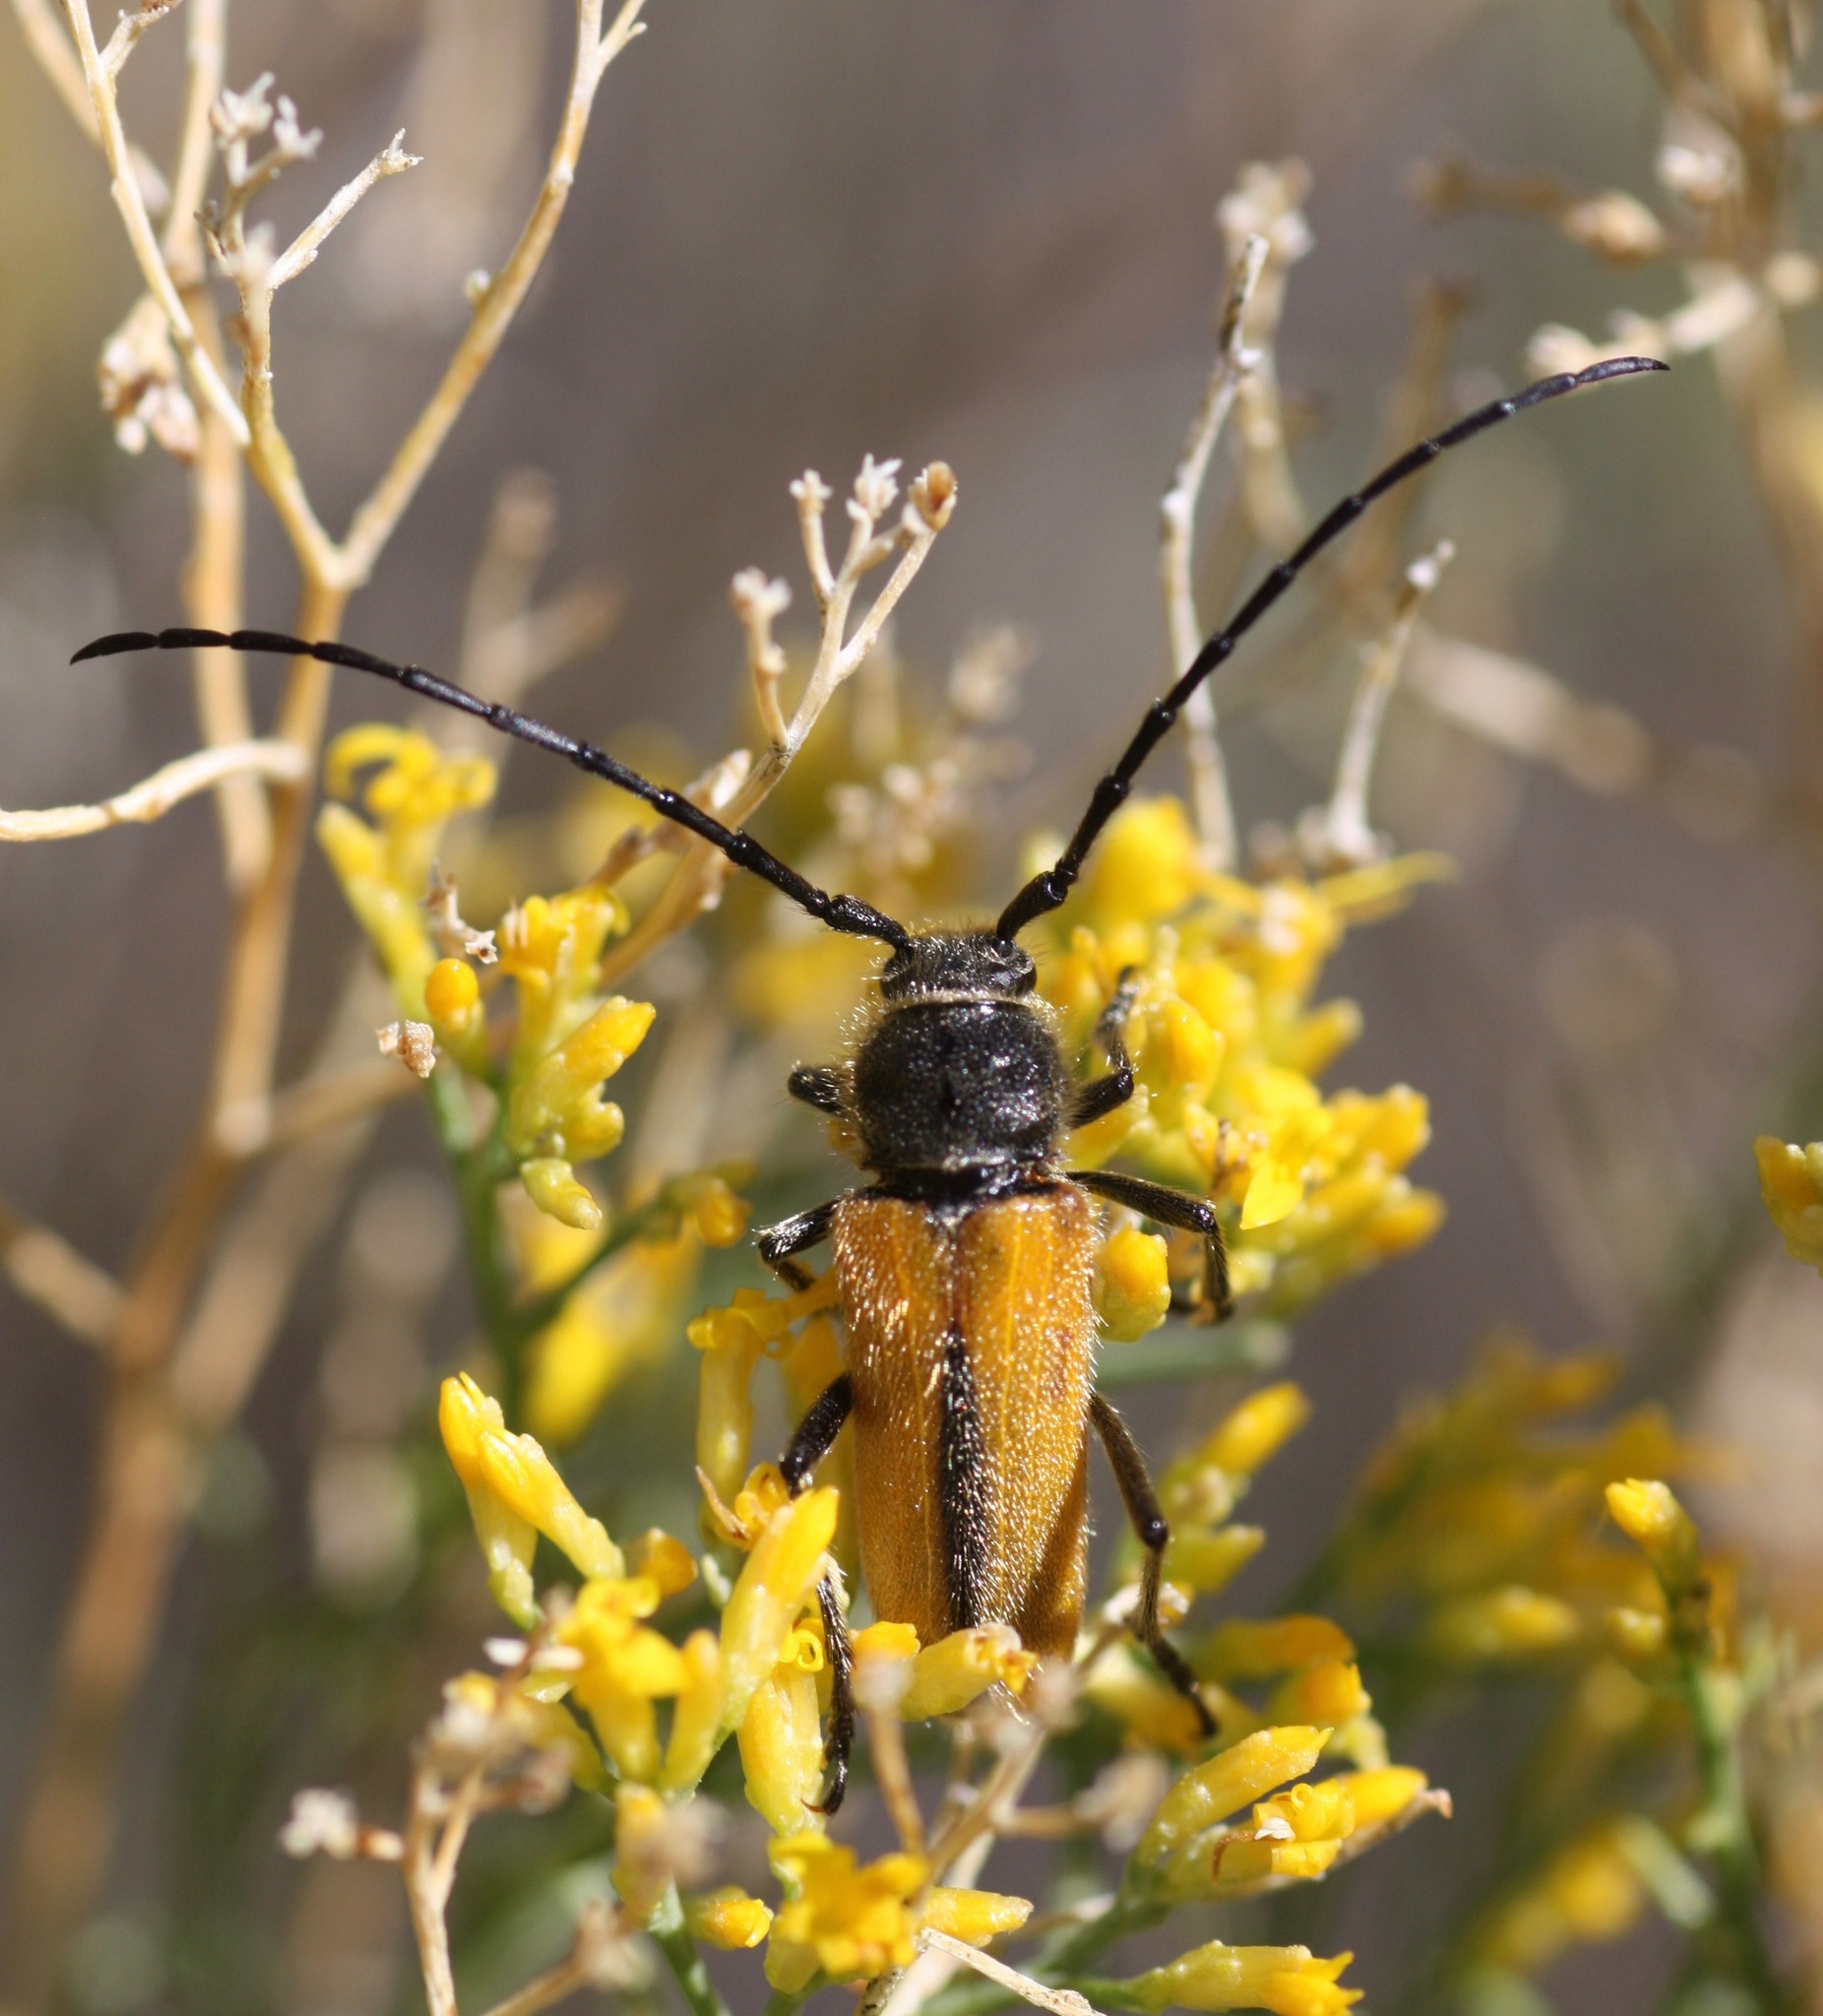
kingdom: Animalia
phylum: Arthropoda
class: Insecta
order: Coleoptera
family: Cerambycidae
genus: Crossidius
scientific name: Crossidius pulchellus
